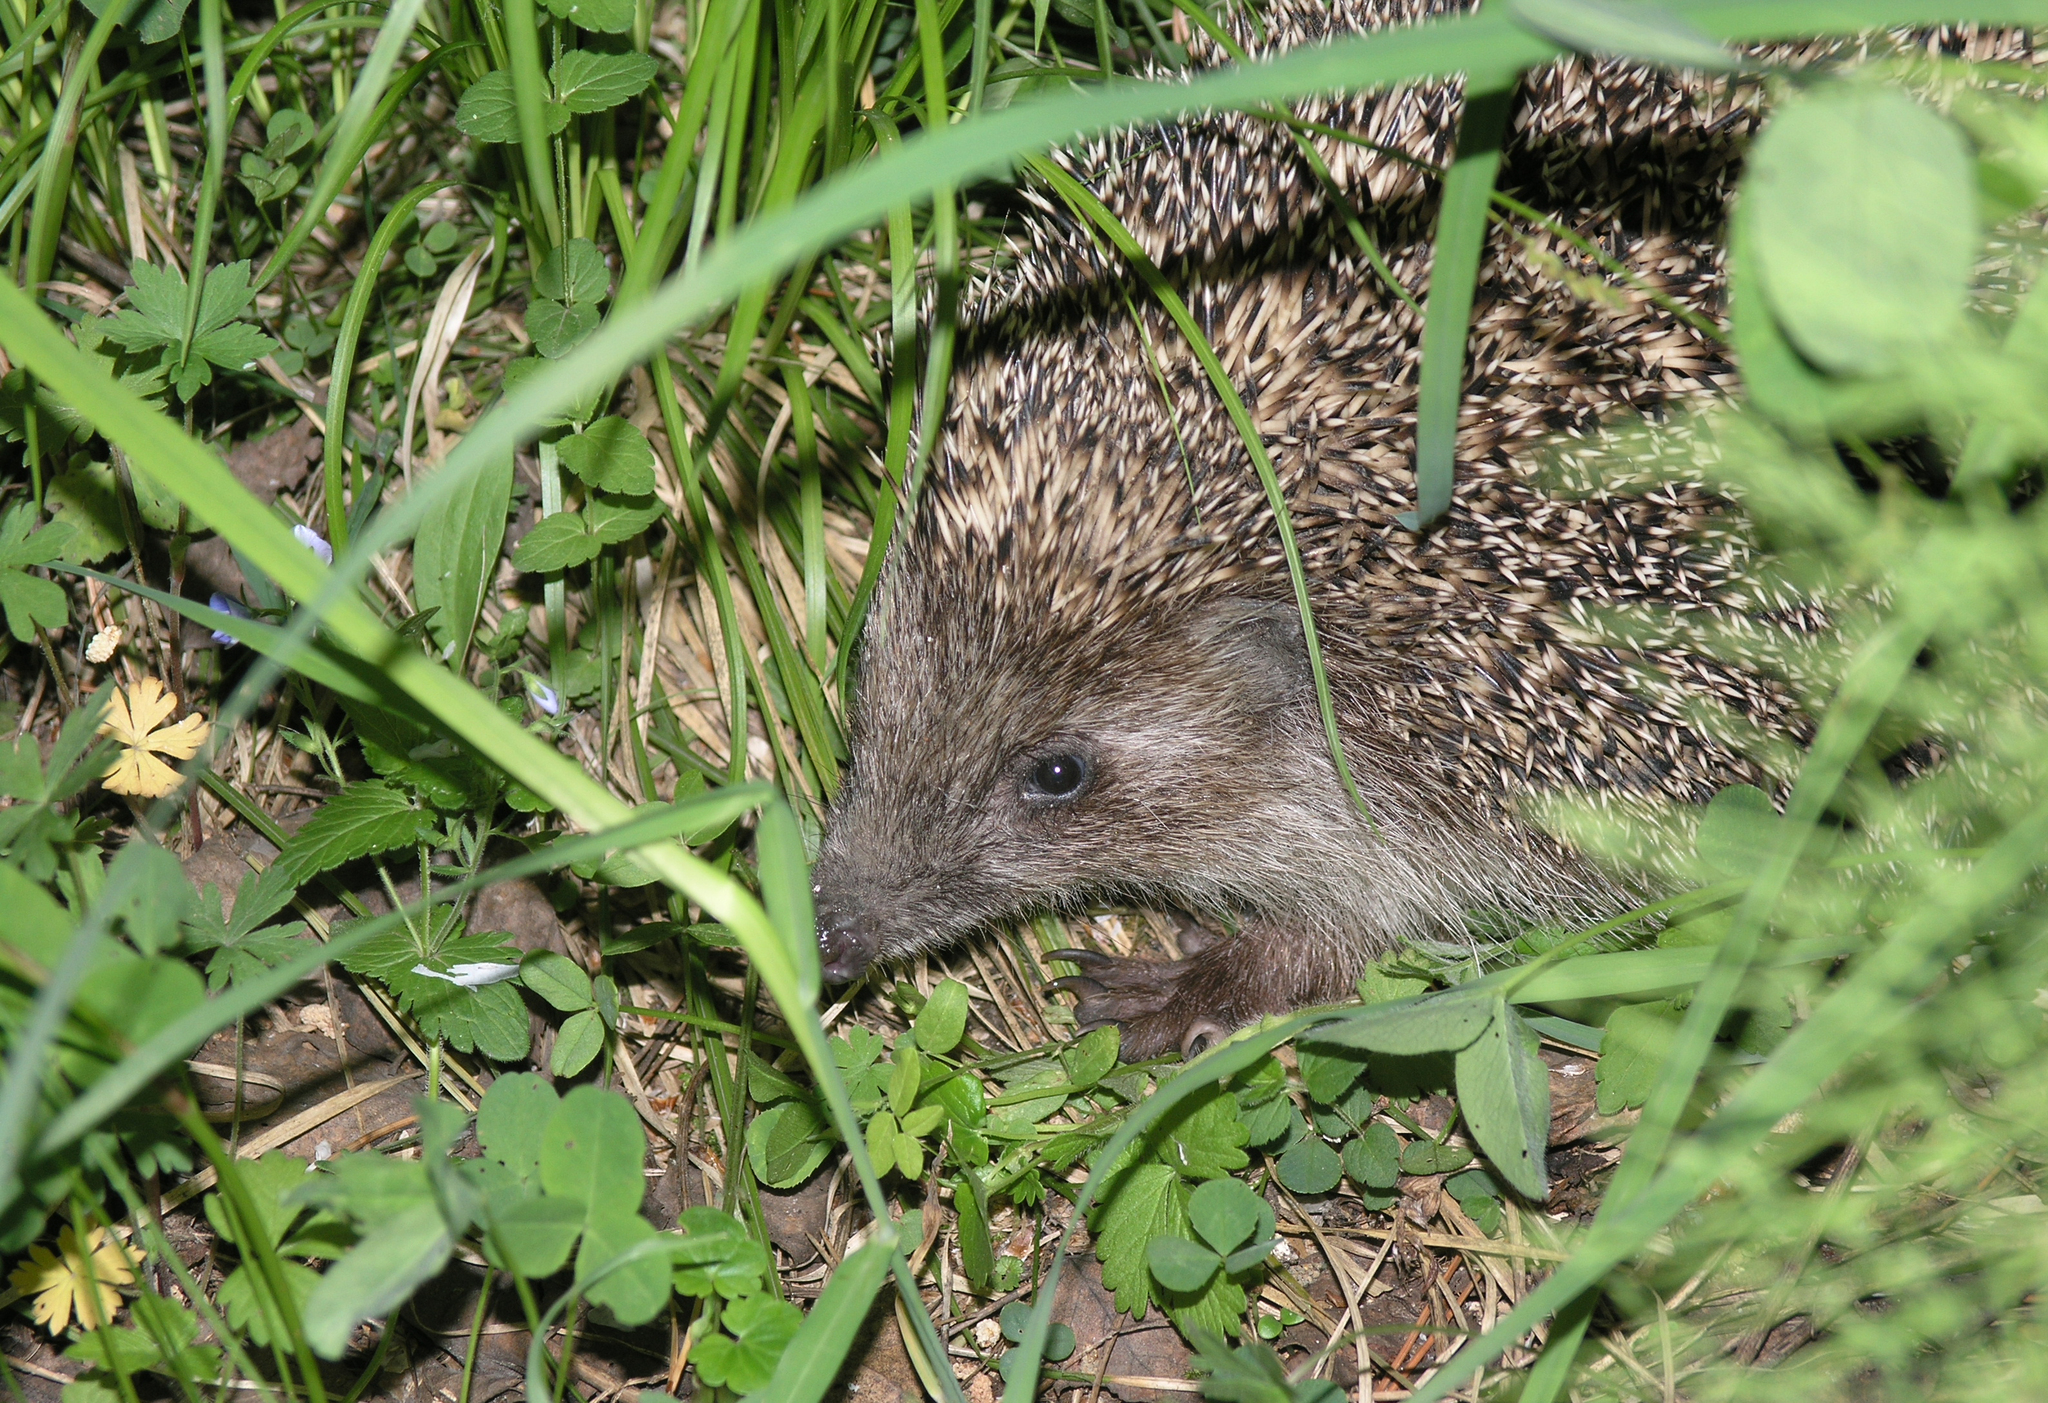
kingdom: Animalia
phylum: Chordata
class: Mammalia
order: Erinaceomorpha
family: Erinaceidae
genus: Erinaceus
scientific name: Erinaceus roumanicus
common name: Northern white-breasted hedgehog
